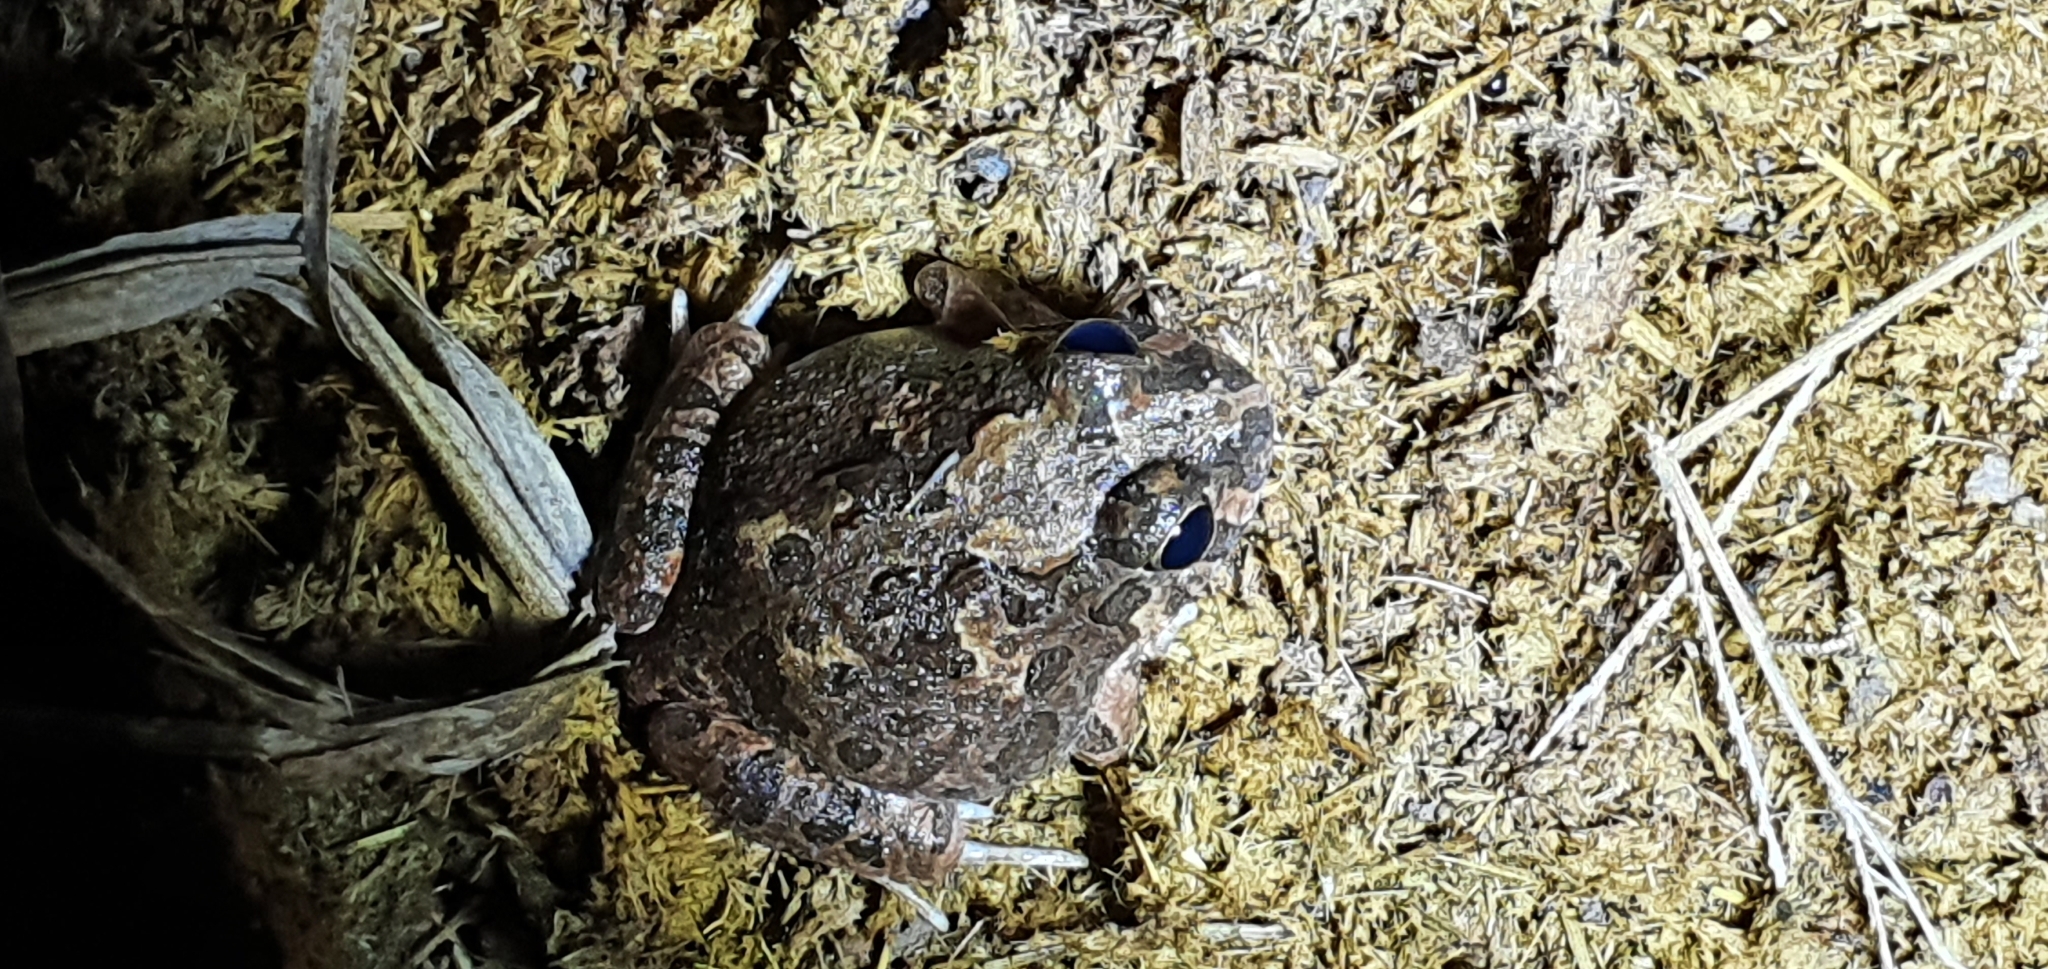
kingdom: Animalia
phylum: Chordata
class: Amphibia
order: Anura
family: Limnodynastidae
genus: Platyplectrum
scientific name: Platyplectrum ornatum
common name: Ornate burrowing frog
